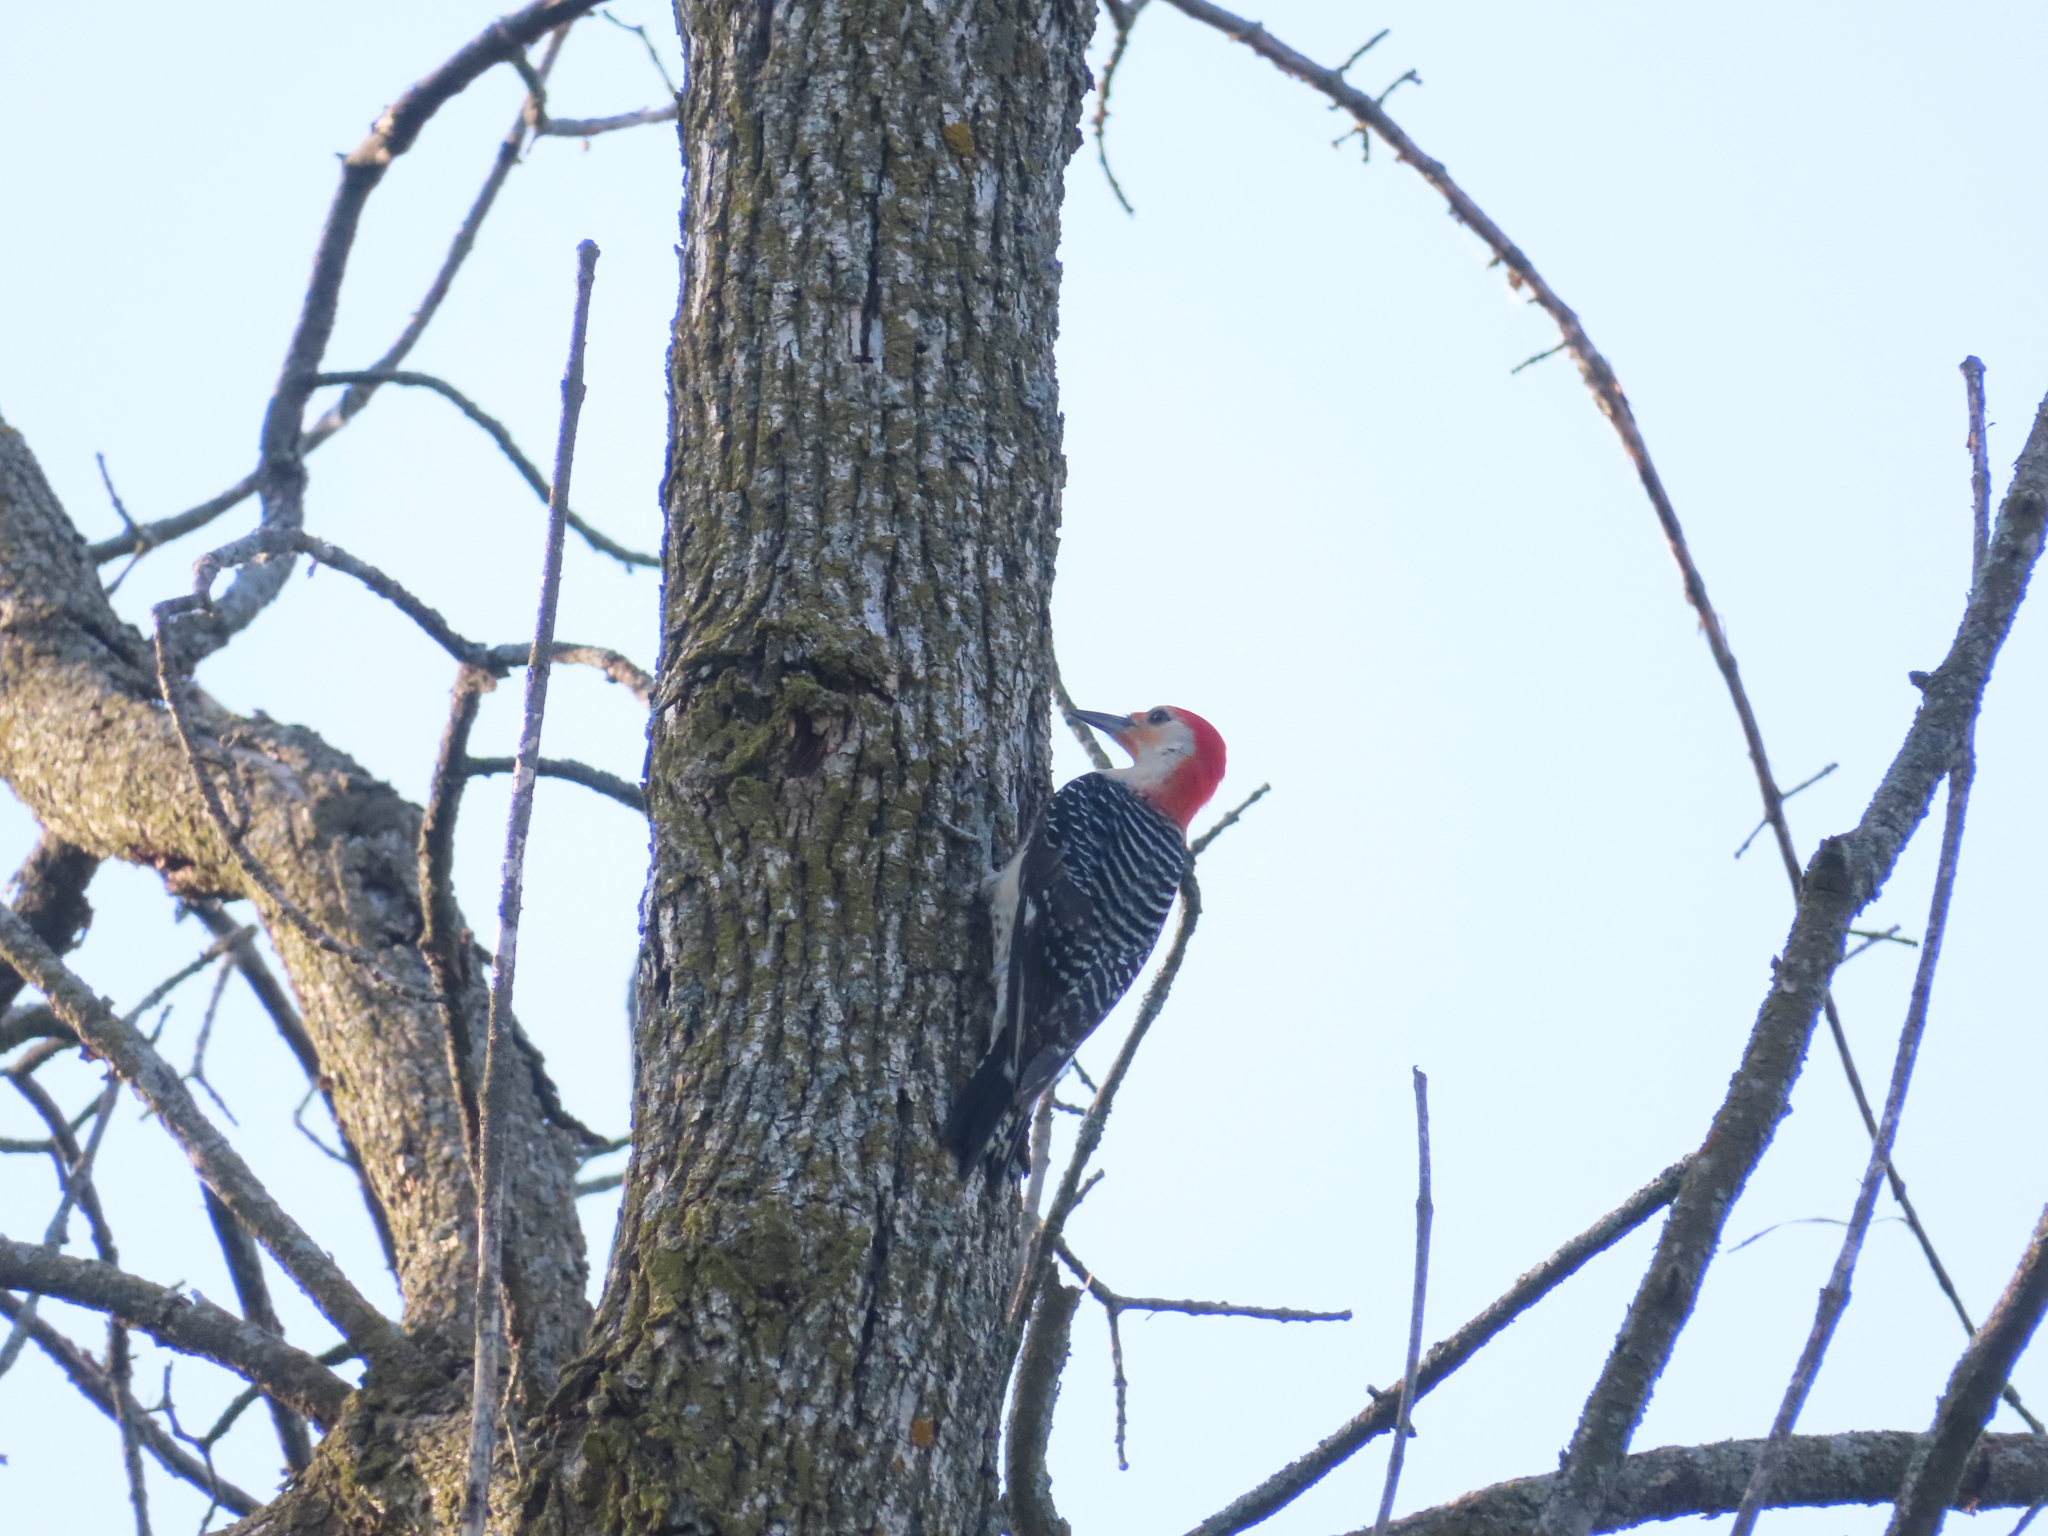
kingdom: Animalia
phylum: Chordata
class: Aves
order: Piciformes
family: Picidae
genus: Melanerpes
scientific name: Melanerpes carolinus
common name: Red-bellied woodpecker
